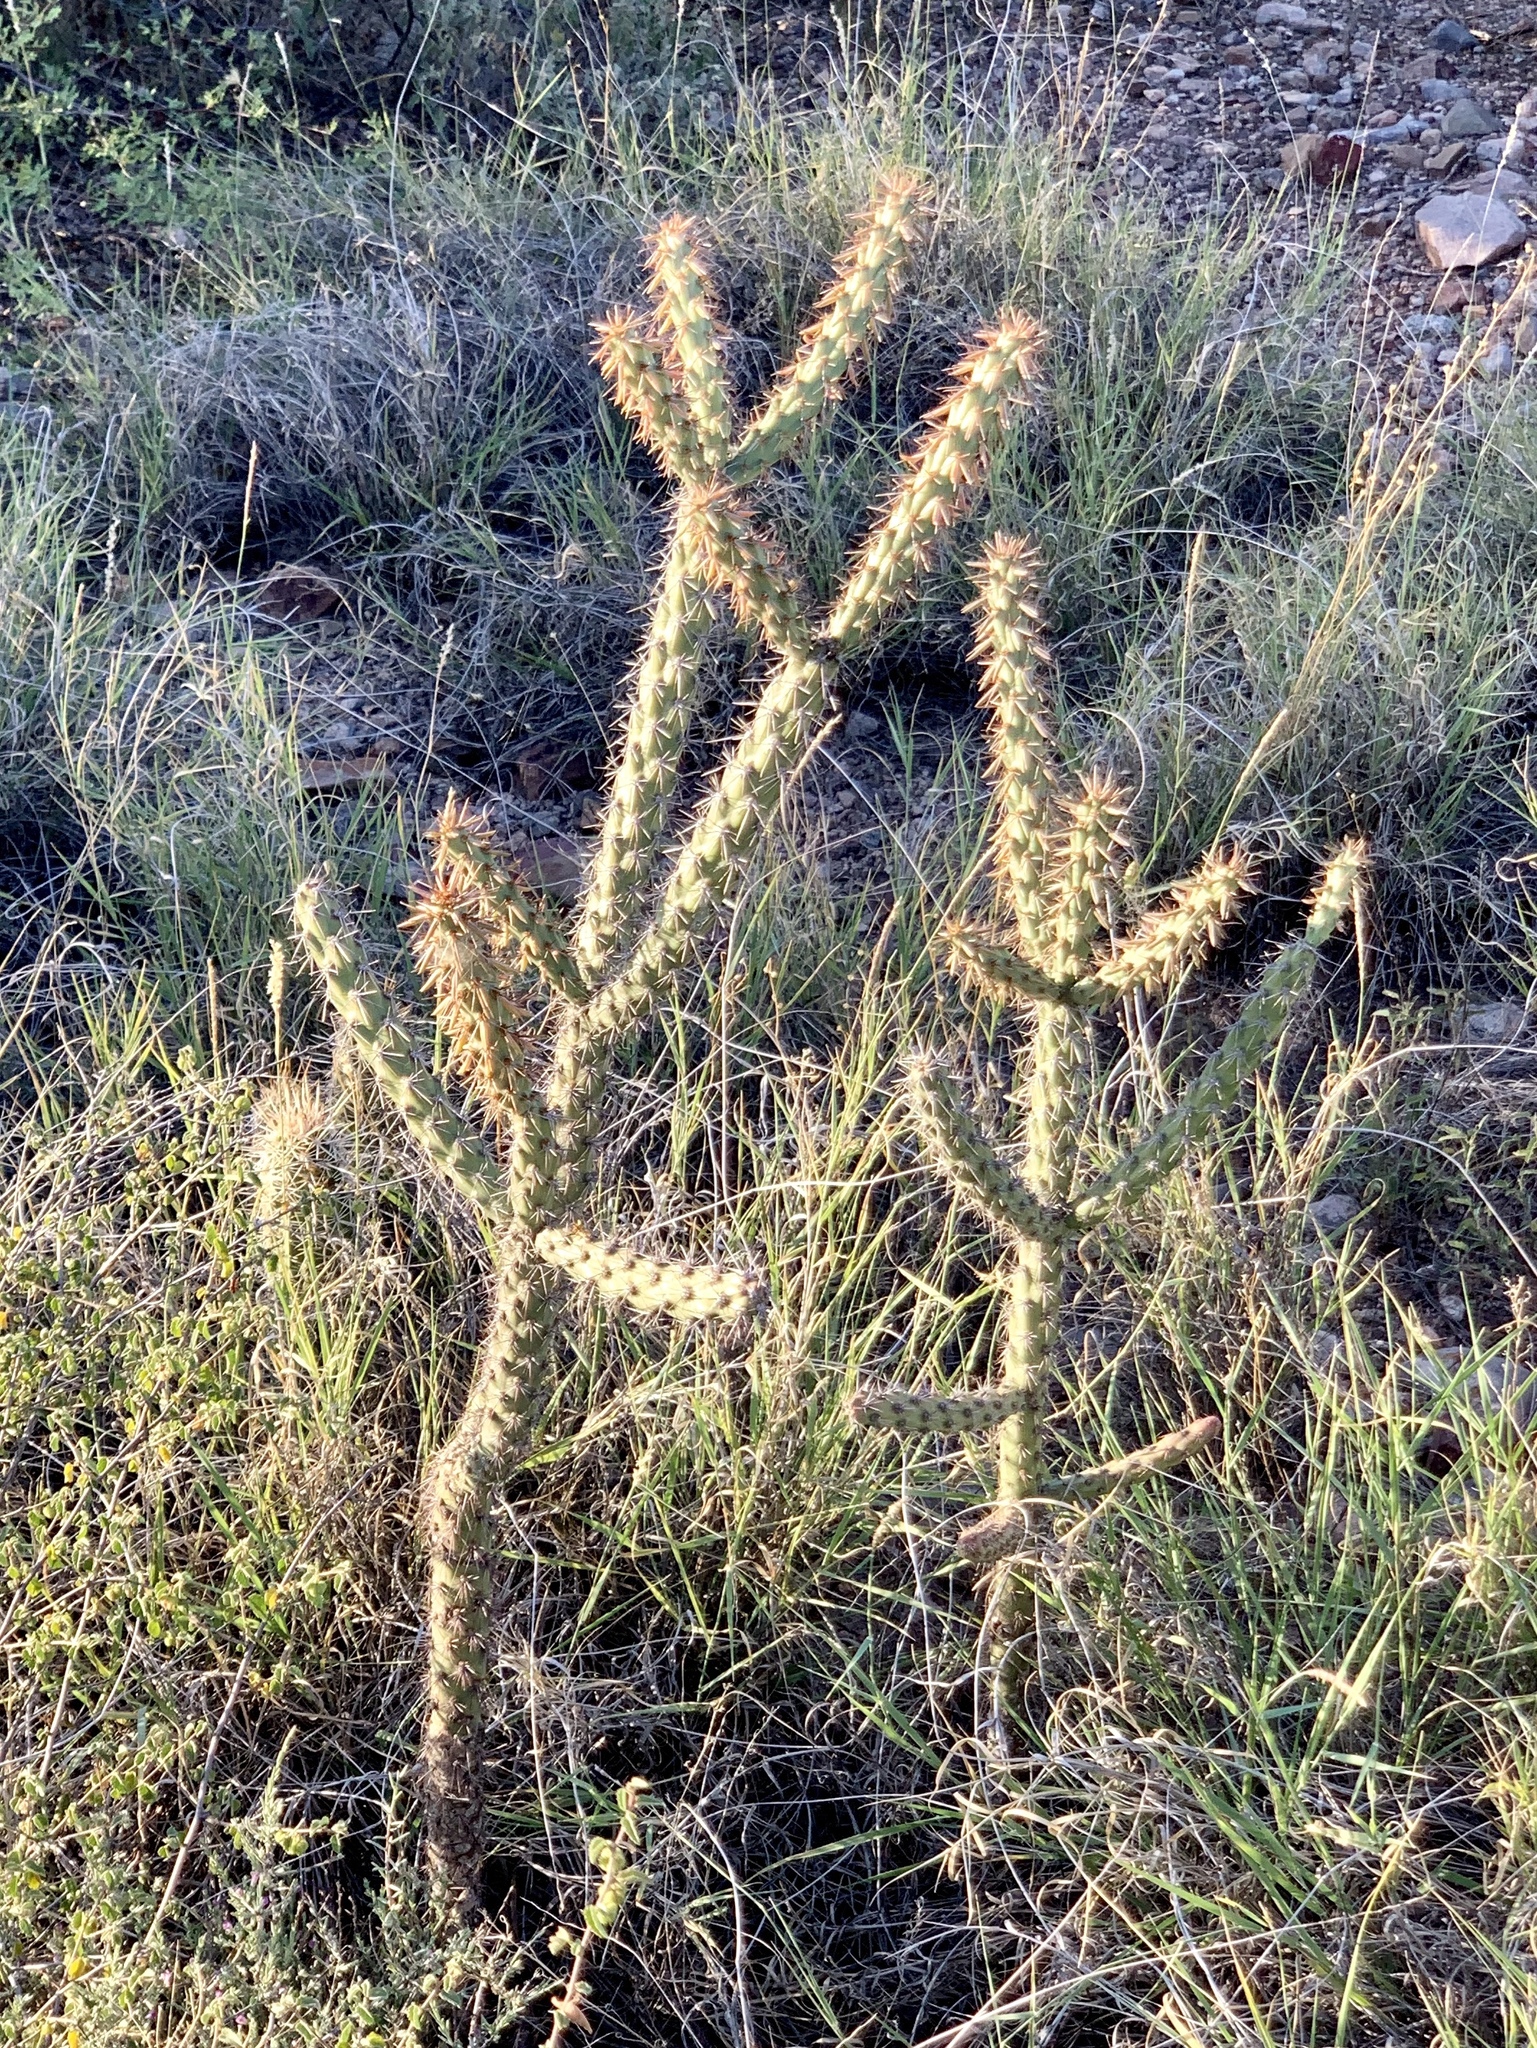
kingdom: Plantae
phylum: Tracheophyta
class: Magnoliopsida
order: Caryophyllales
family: Cactaceae
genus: Cylindropuntia
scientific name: Cylindropuntia acanthocarpa
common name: Buckhorn cholla
